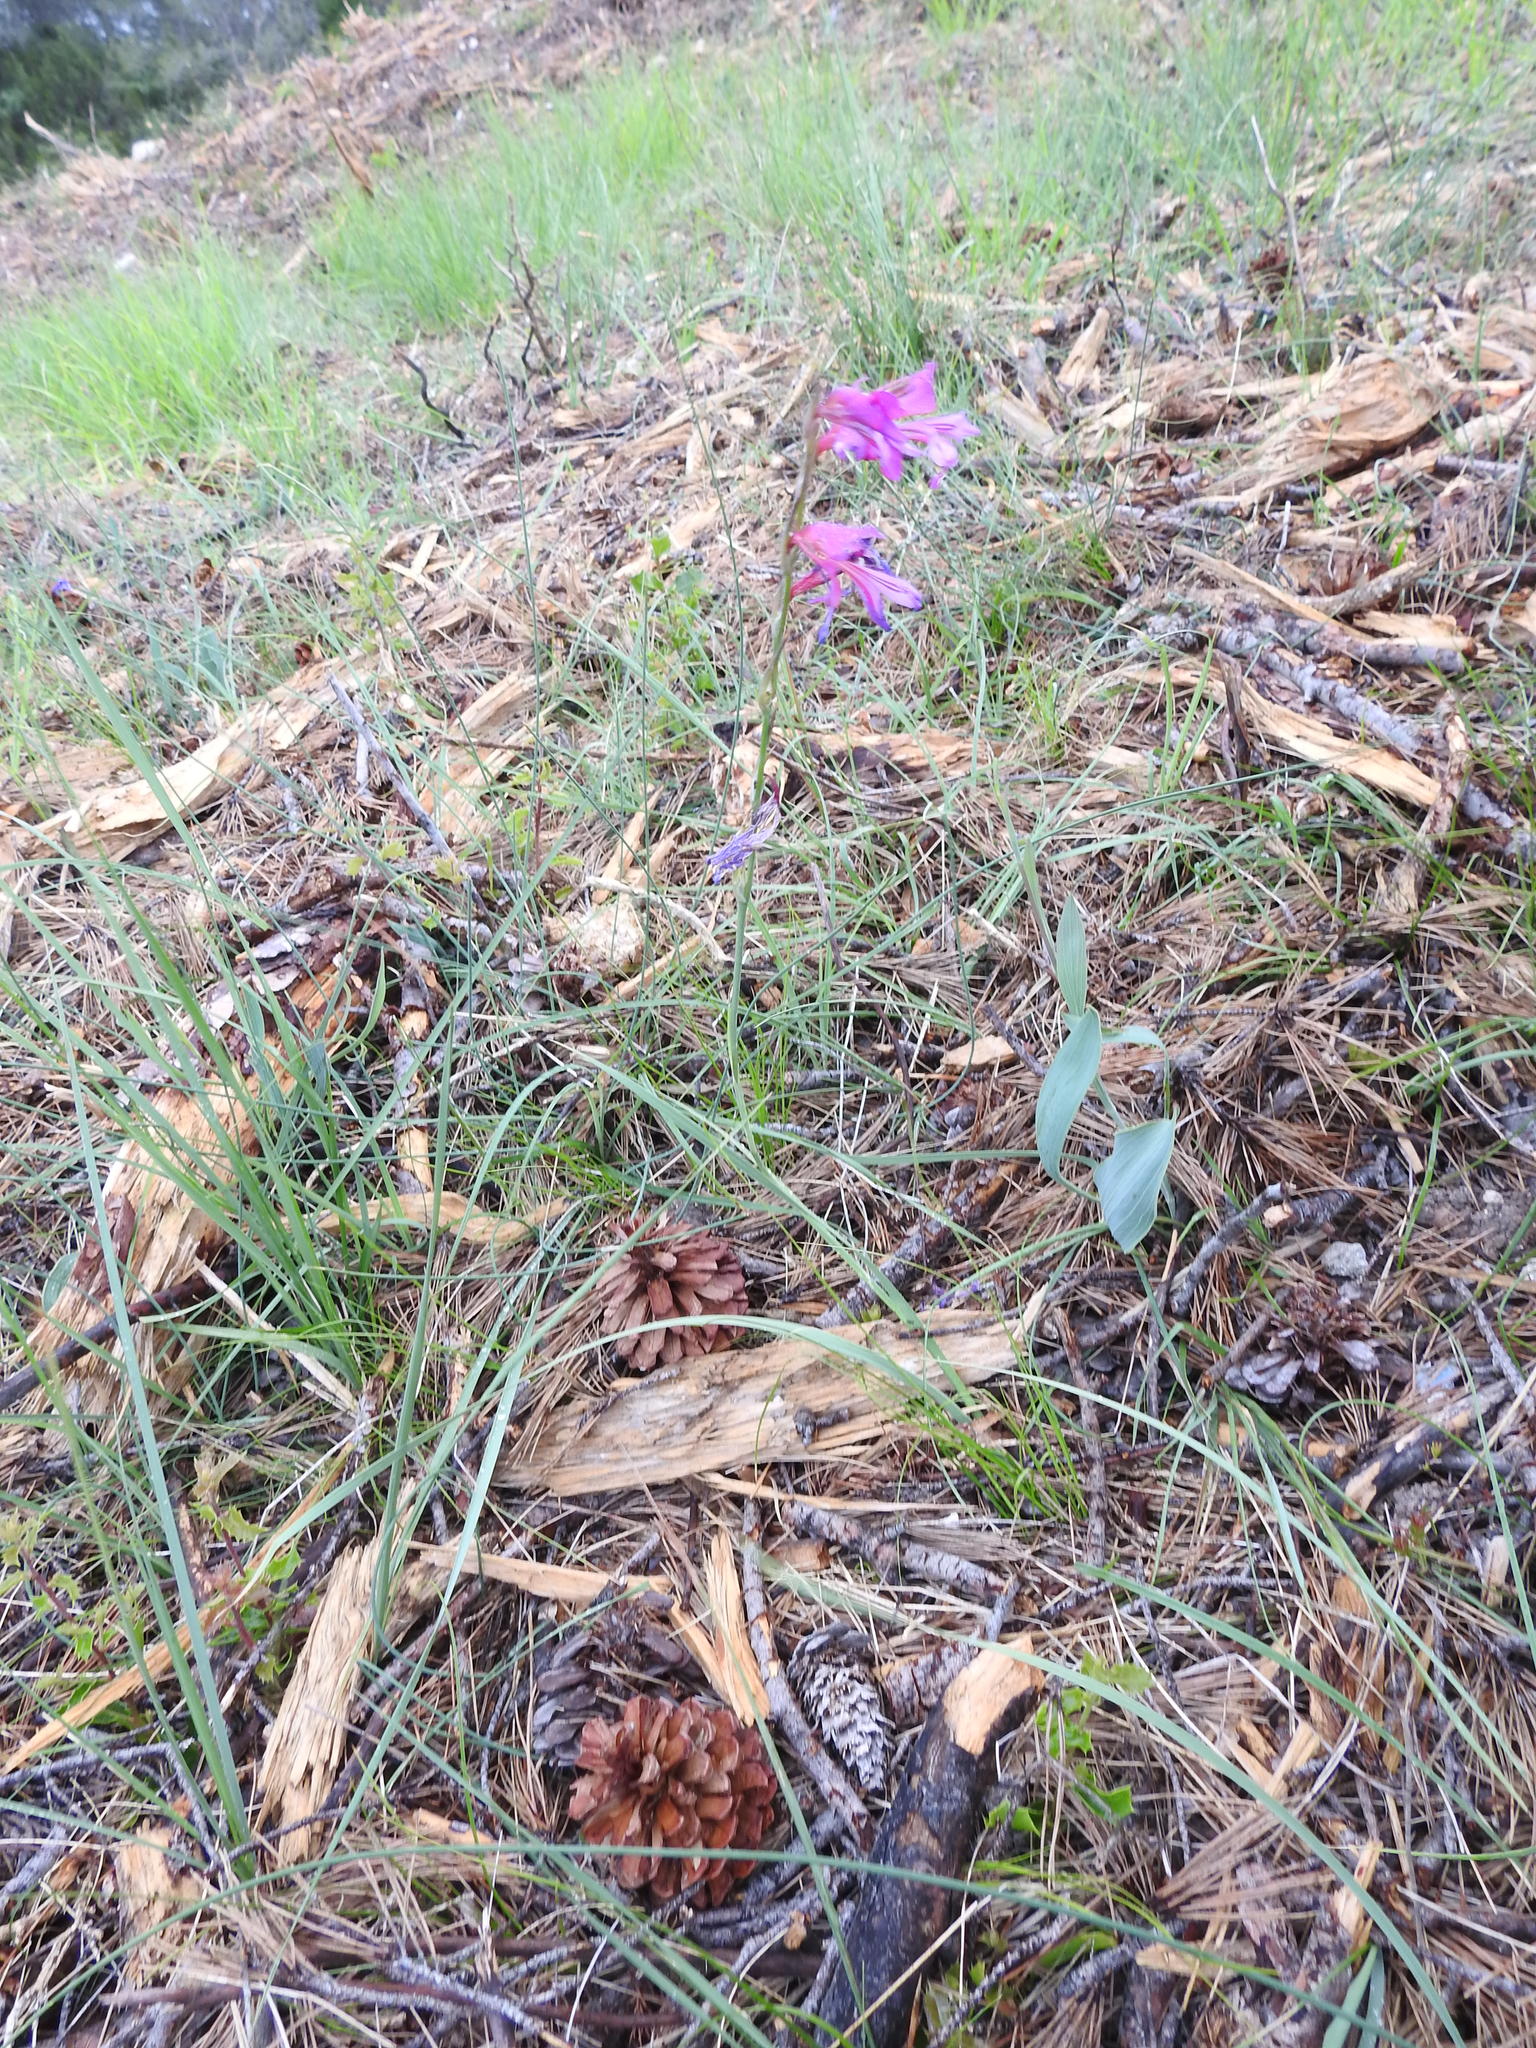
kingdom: Plantae
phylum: Tracheophyta
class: Liliopsida
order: Asparagales
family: Iridaceae
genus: Gladiolus
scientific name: Gladiolus dubius
